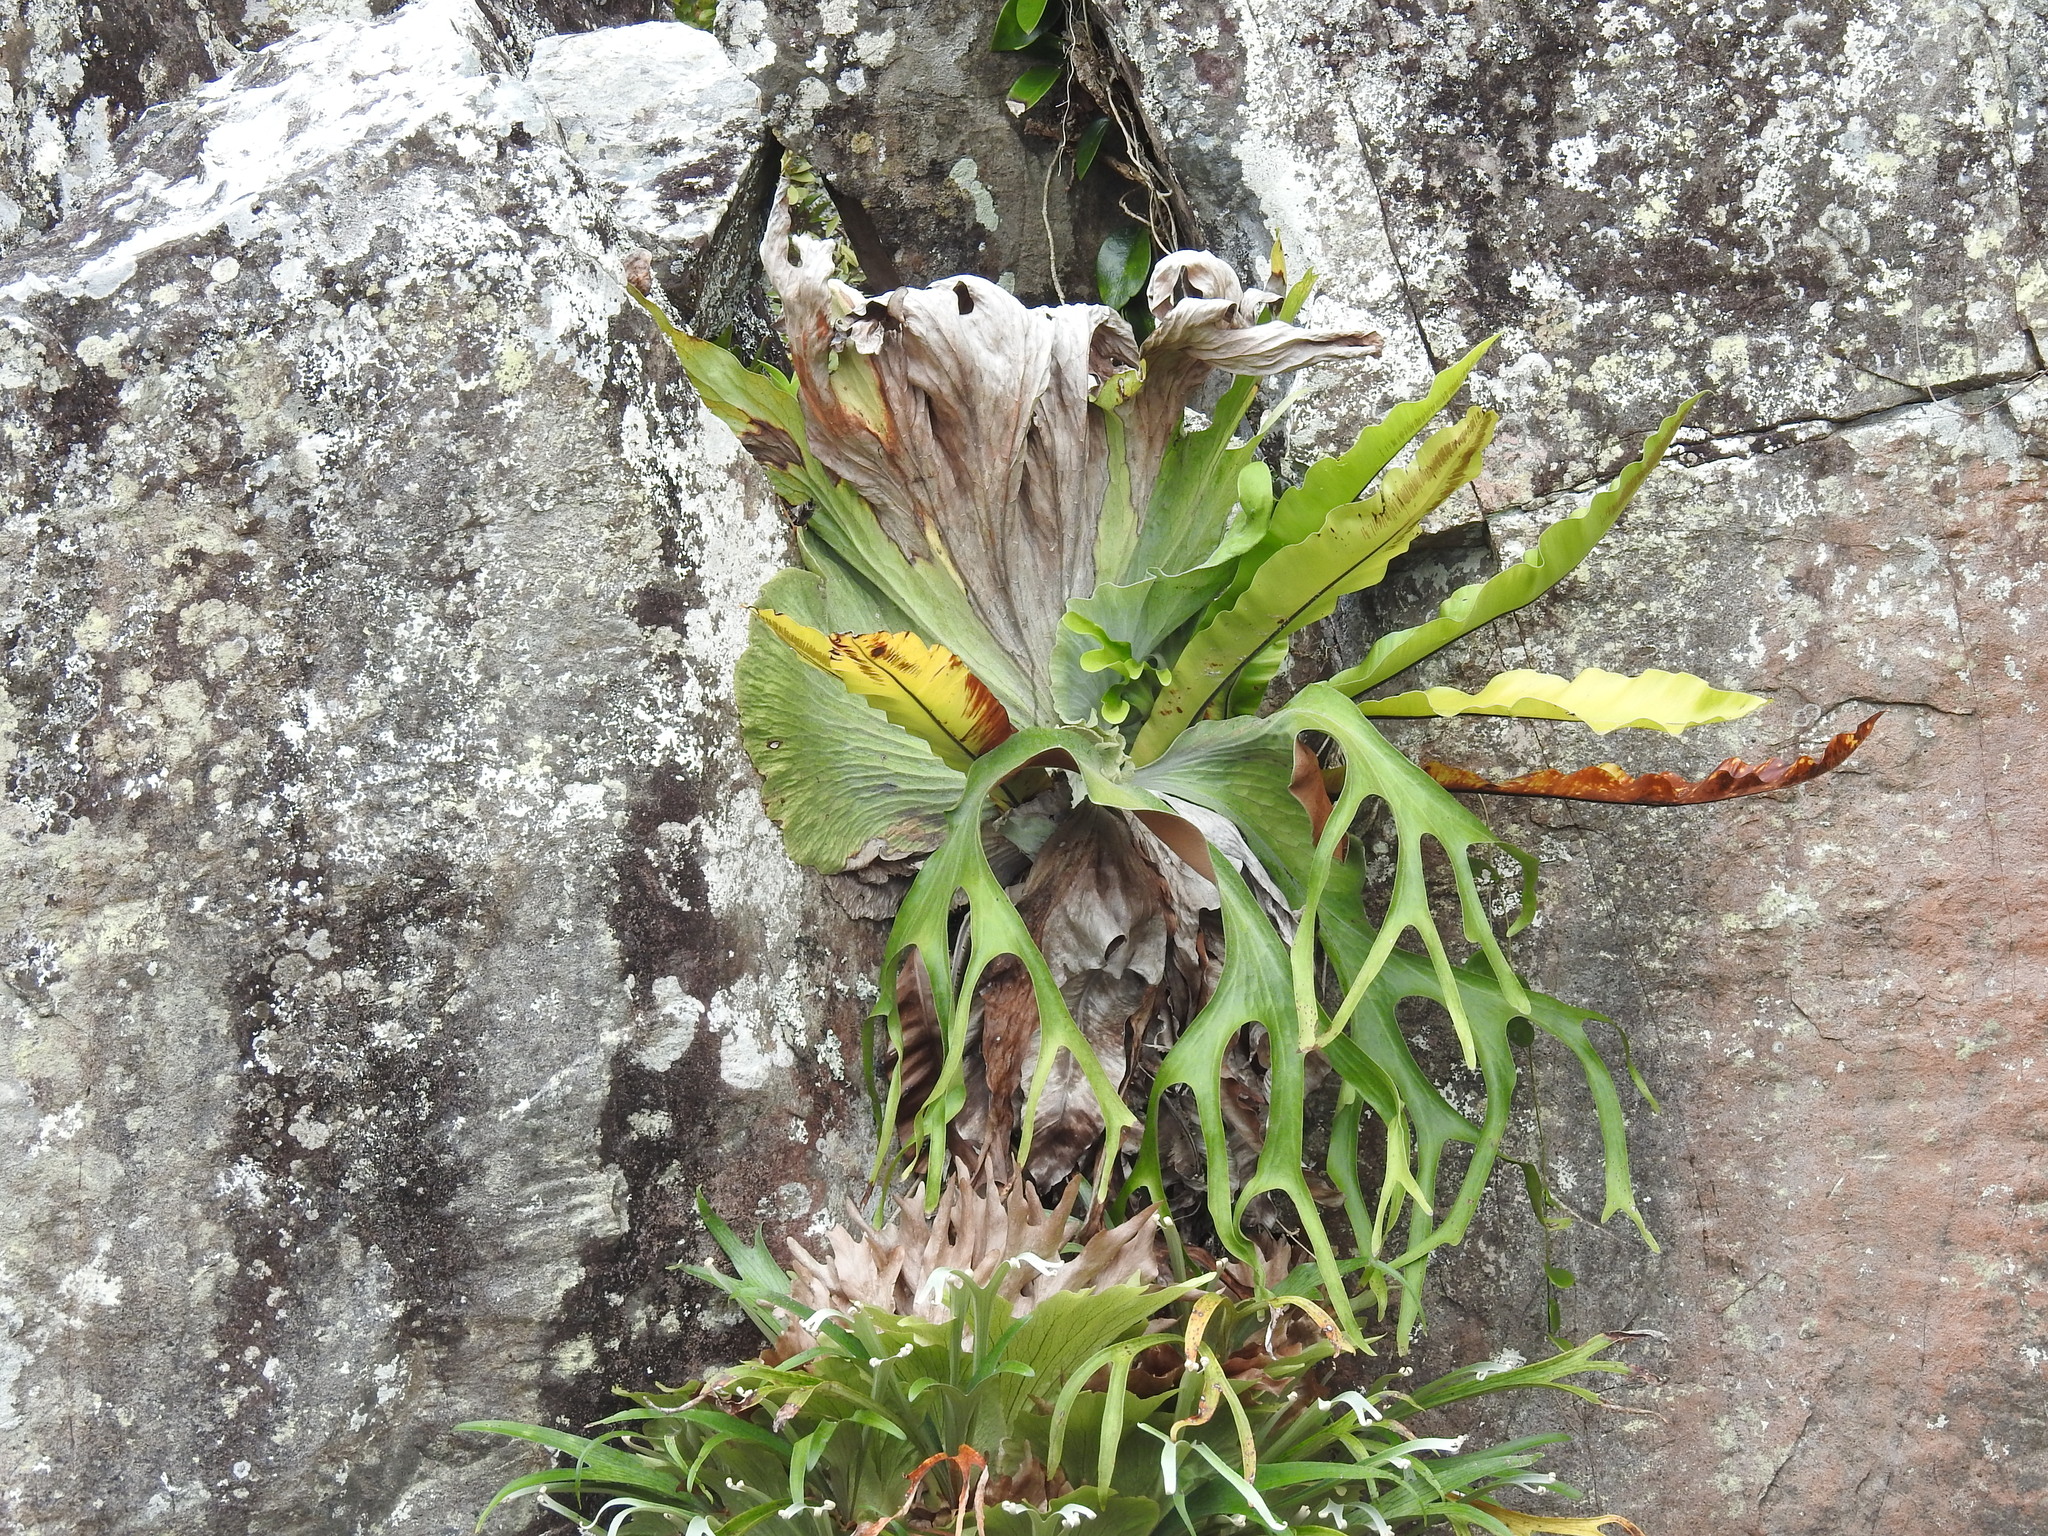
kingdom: Plantae
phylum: Tracheophyta
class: Polypodiopsida
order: Polypodiales
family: Polypodiaceae
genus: Platycerium
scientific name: Platycerium superbum
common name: Staghorn fern
